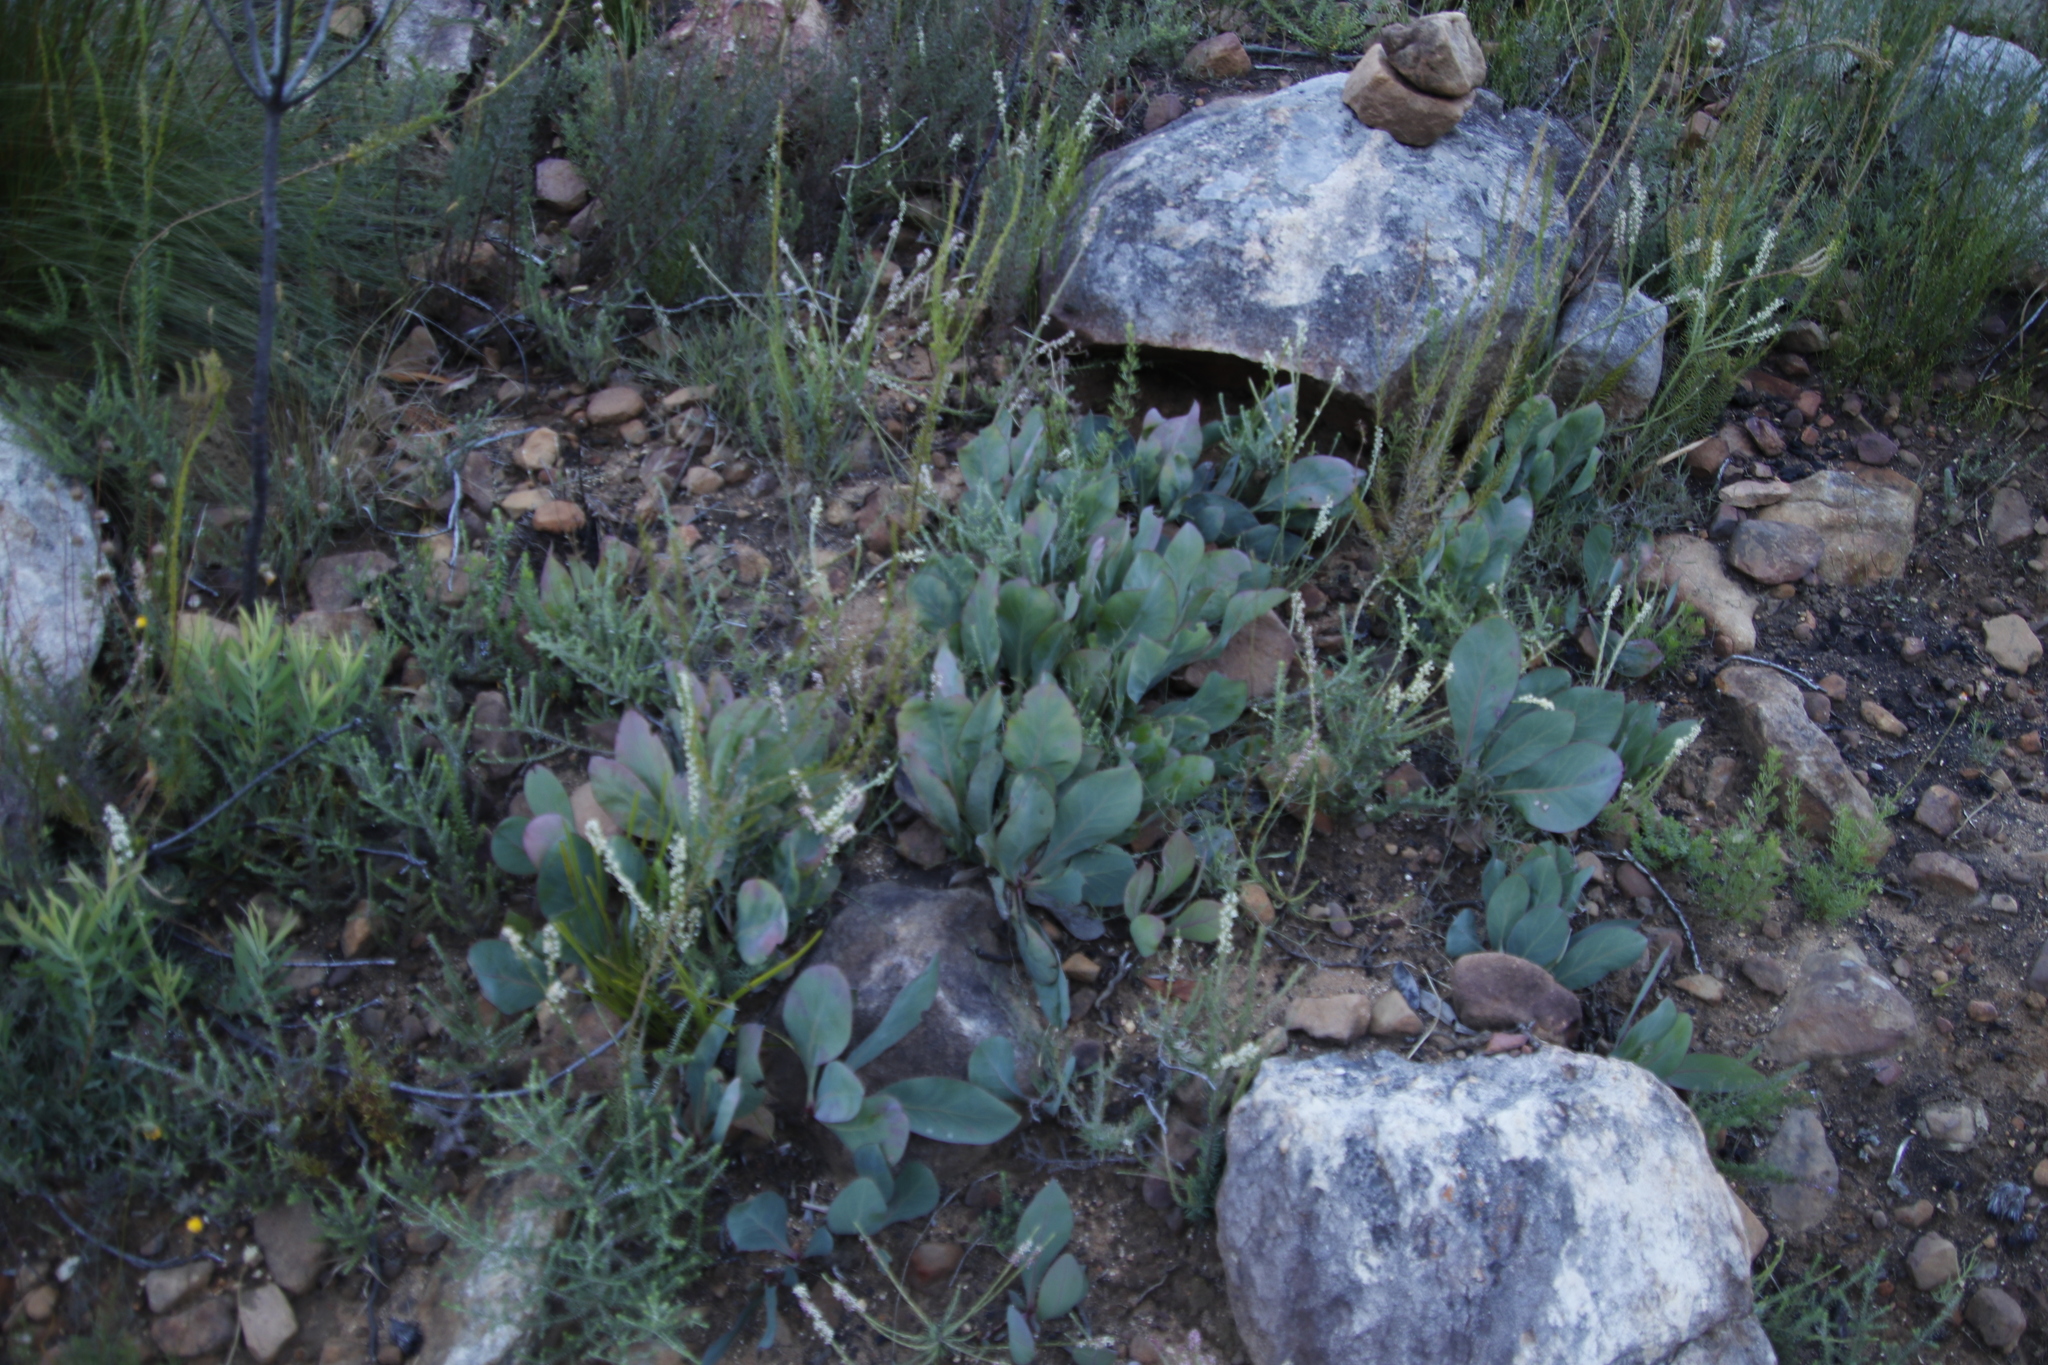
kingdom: Plantae
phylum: Tracheophyta
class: Magnoliopsida
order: Proteales
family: Proteaceae
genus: Protea
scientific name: Protea acaulos
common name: Common ground sugarbush
